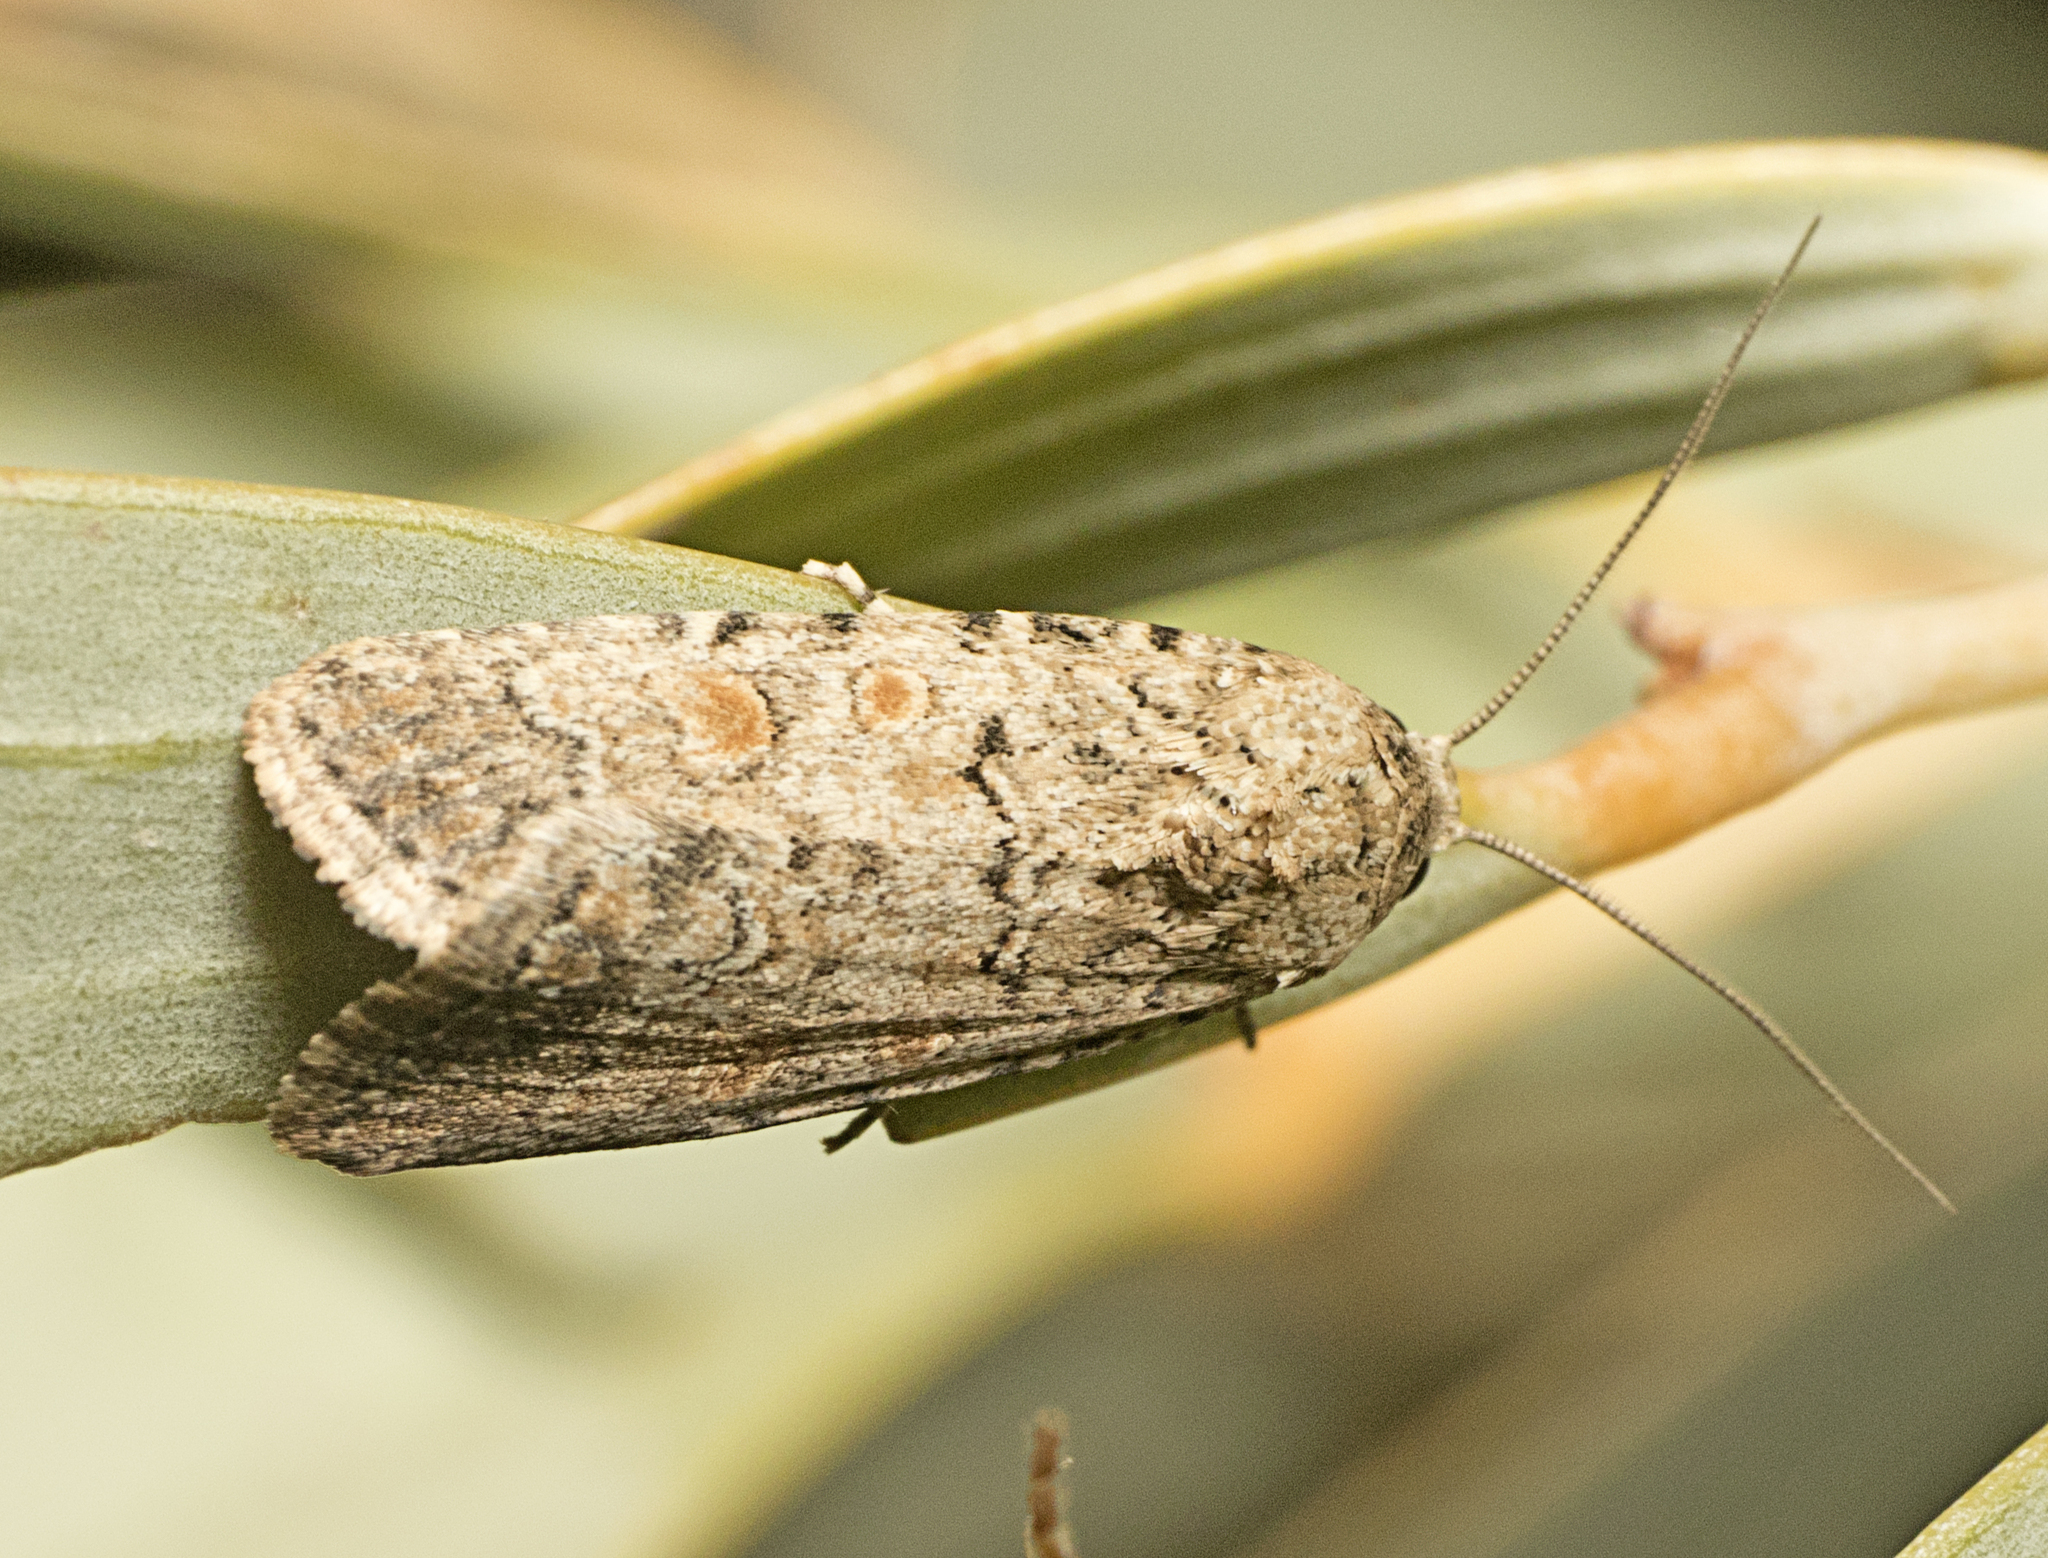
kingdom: Animalia
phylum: Arthropoda
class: Insecta
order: Lepidoptera
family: Noctuidae
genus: Spodoptera
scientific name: Spodoptera exigua
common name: Beet armyworm
